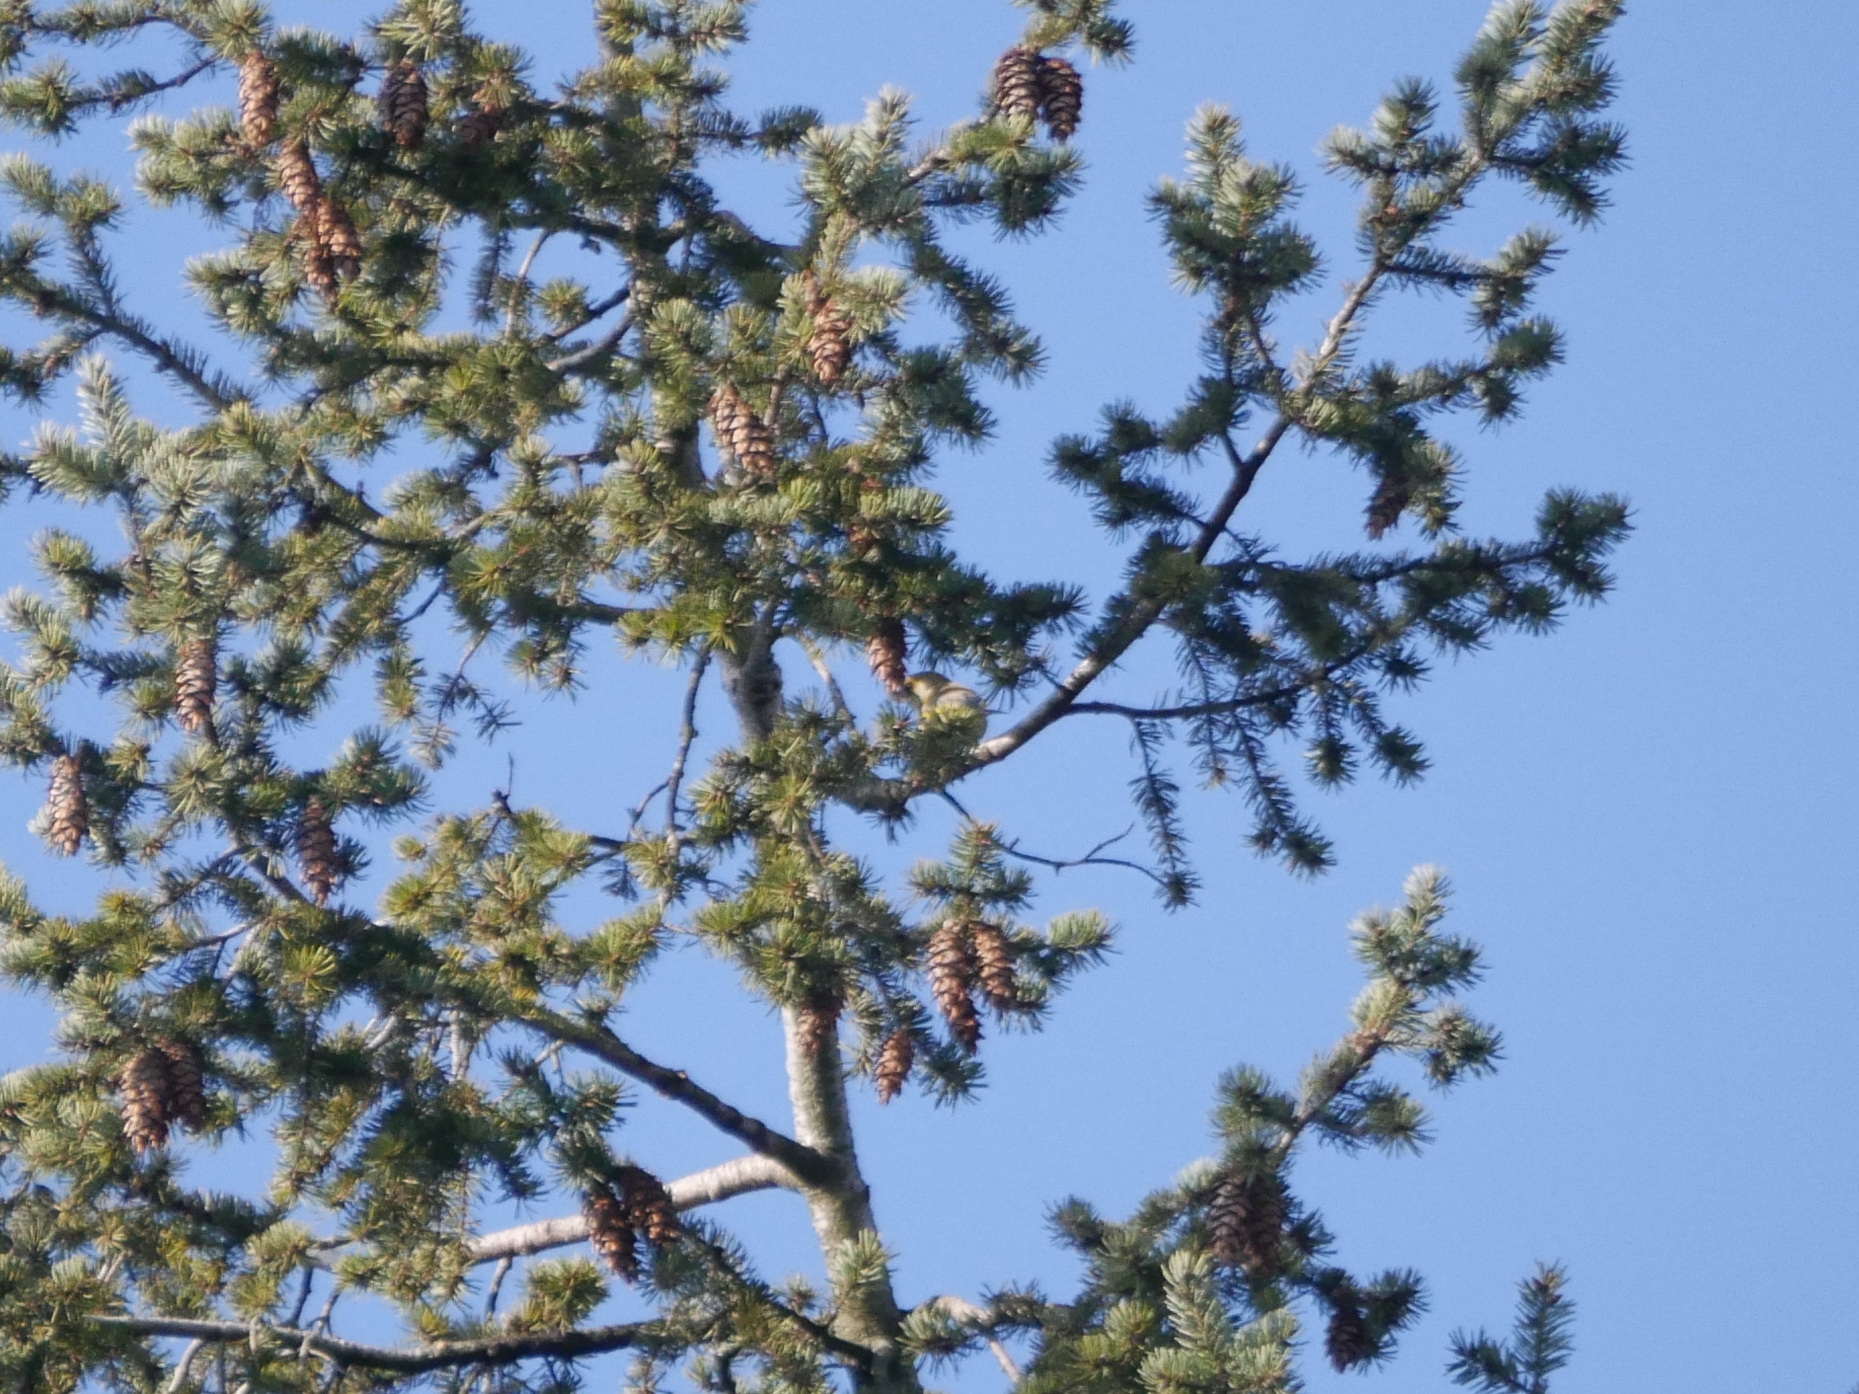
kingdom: Plantae
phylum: Tracheophyta
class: Liliopsida
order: Poales
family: Poaceae
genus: Chloris
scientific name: Chloris chloris
